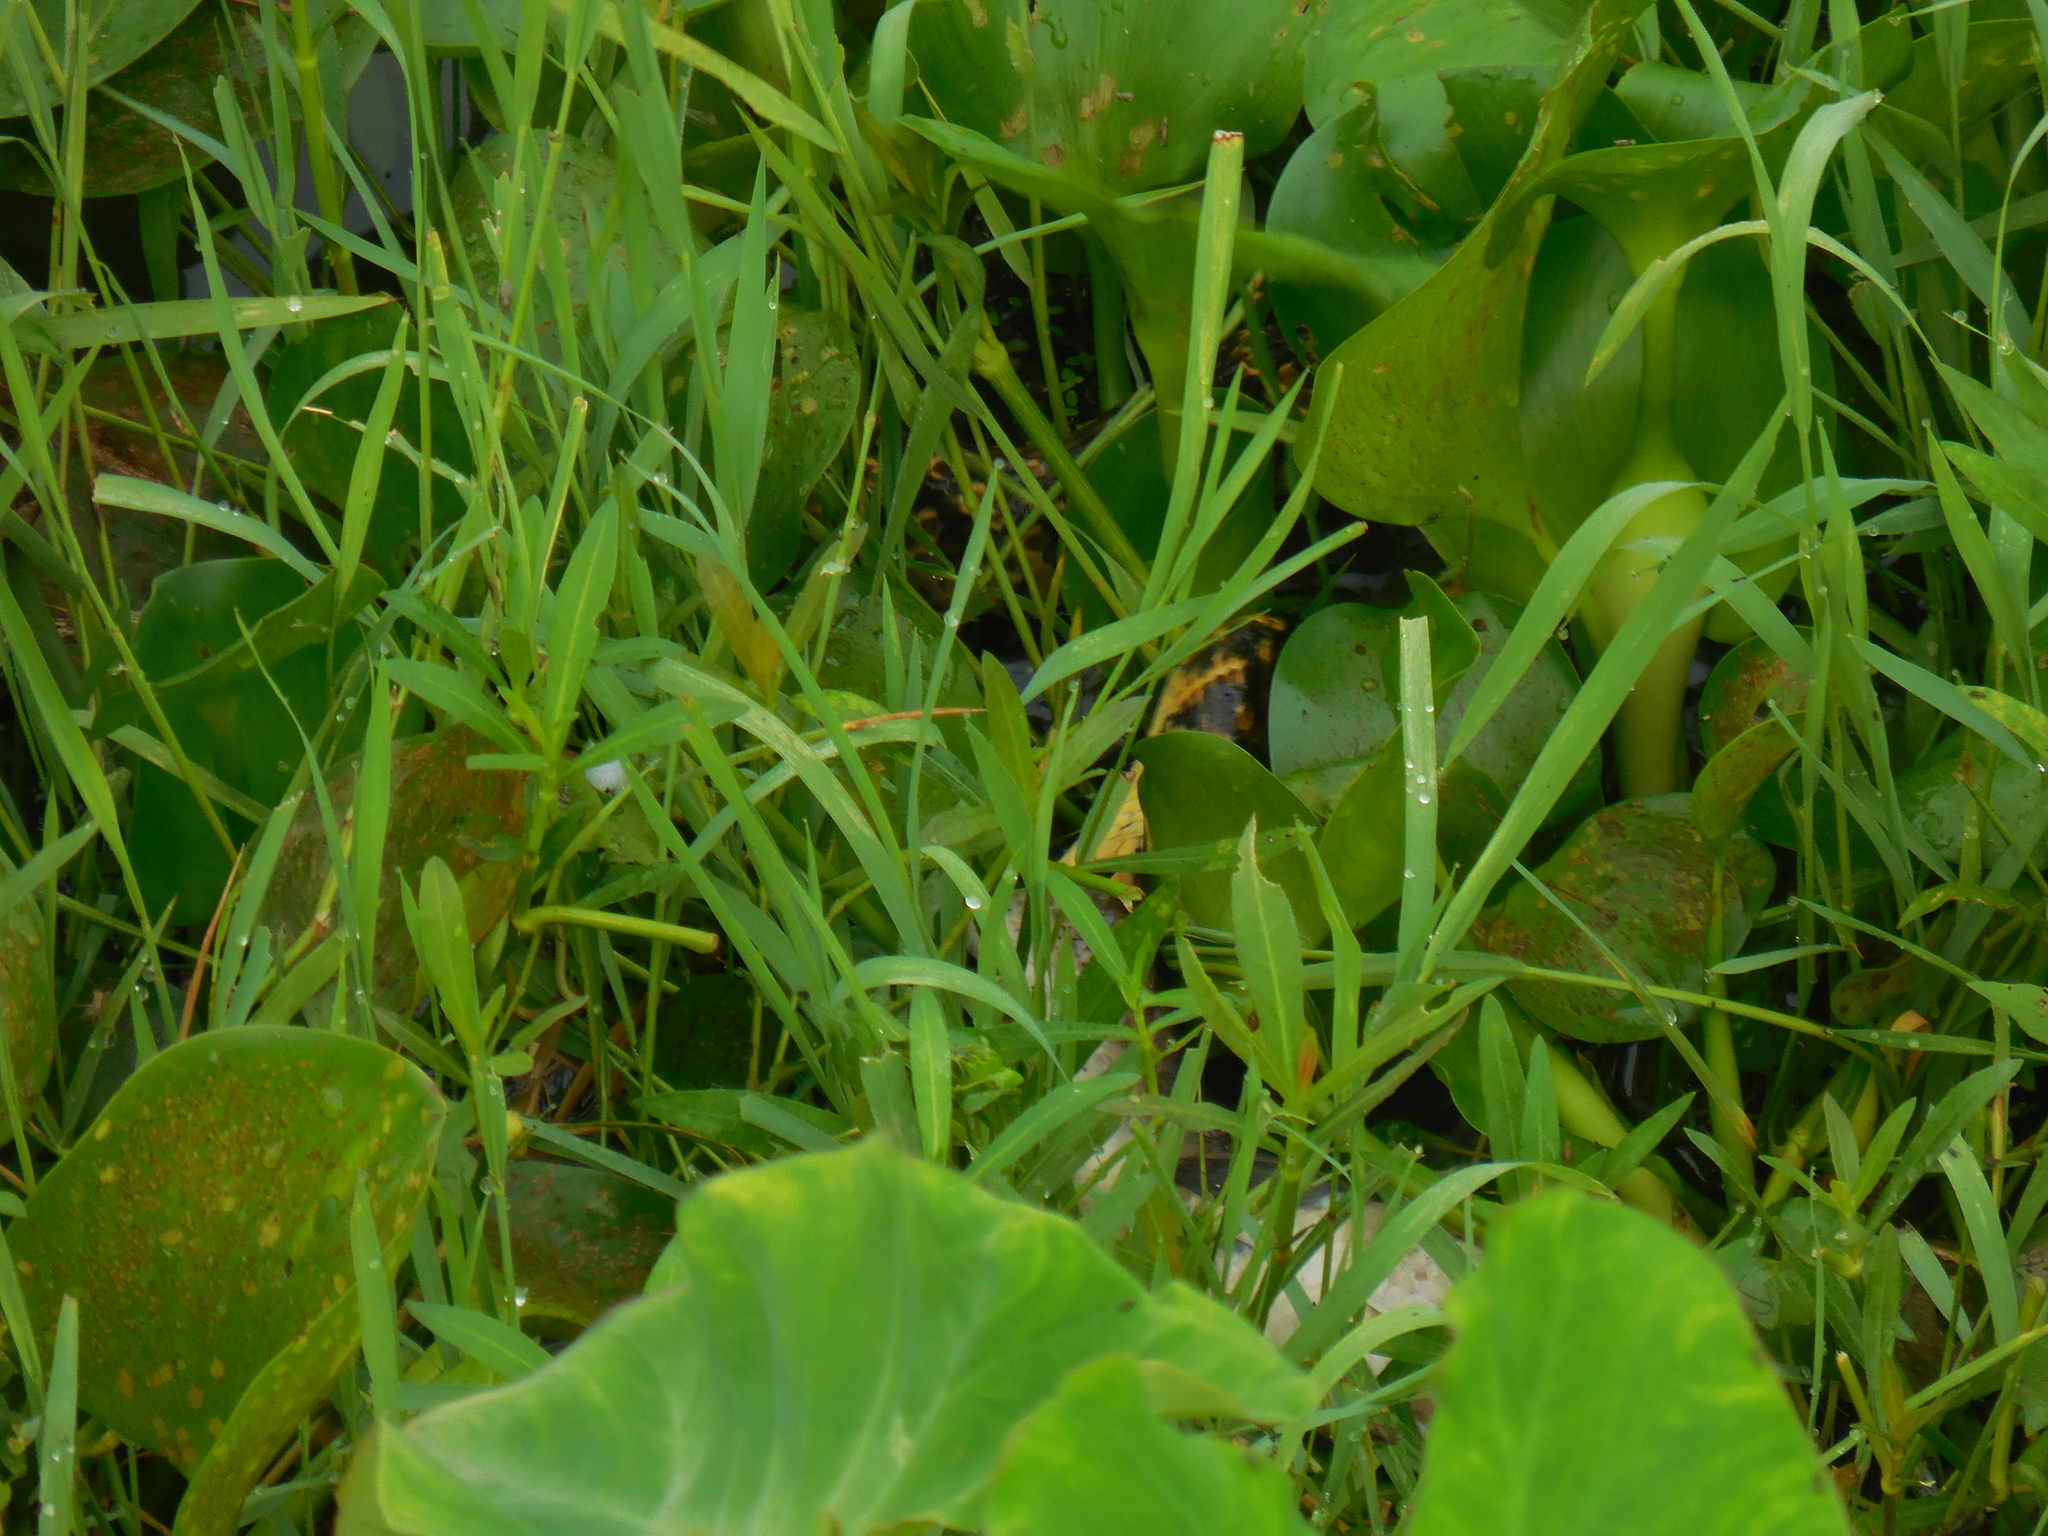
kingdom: Animalia
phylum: Chordata
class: Squamata
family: Colubridae
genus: Fowlea
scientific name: Fowlea piscator
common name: Asiatic water snake
